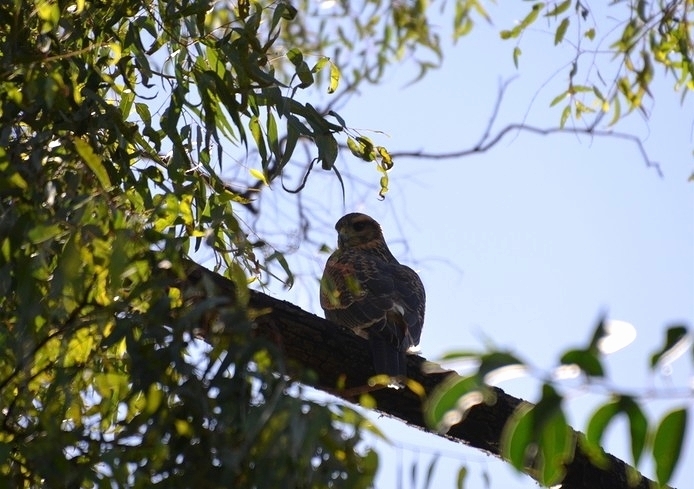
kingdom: Animalia
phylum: Chordata
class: Aves
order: Accipitriformes
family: Accipitridae
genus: Parabuteo
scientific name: Parabuteo unicinctus
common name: Harris's hawk
